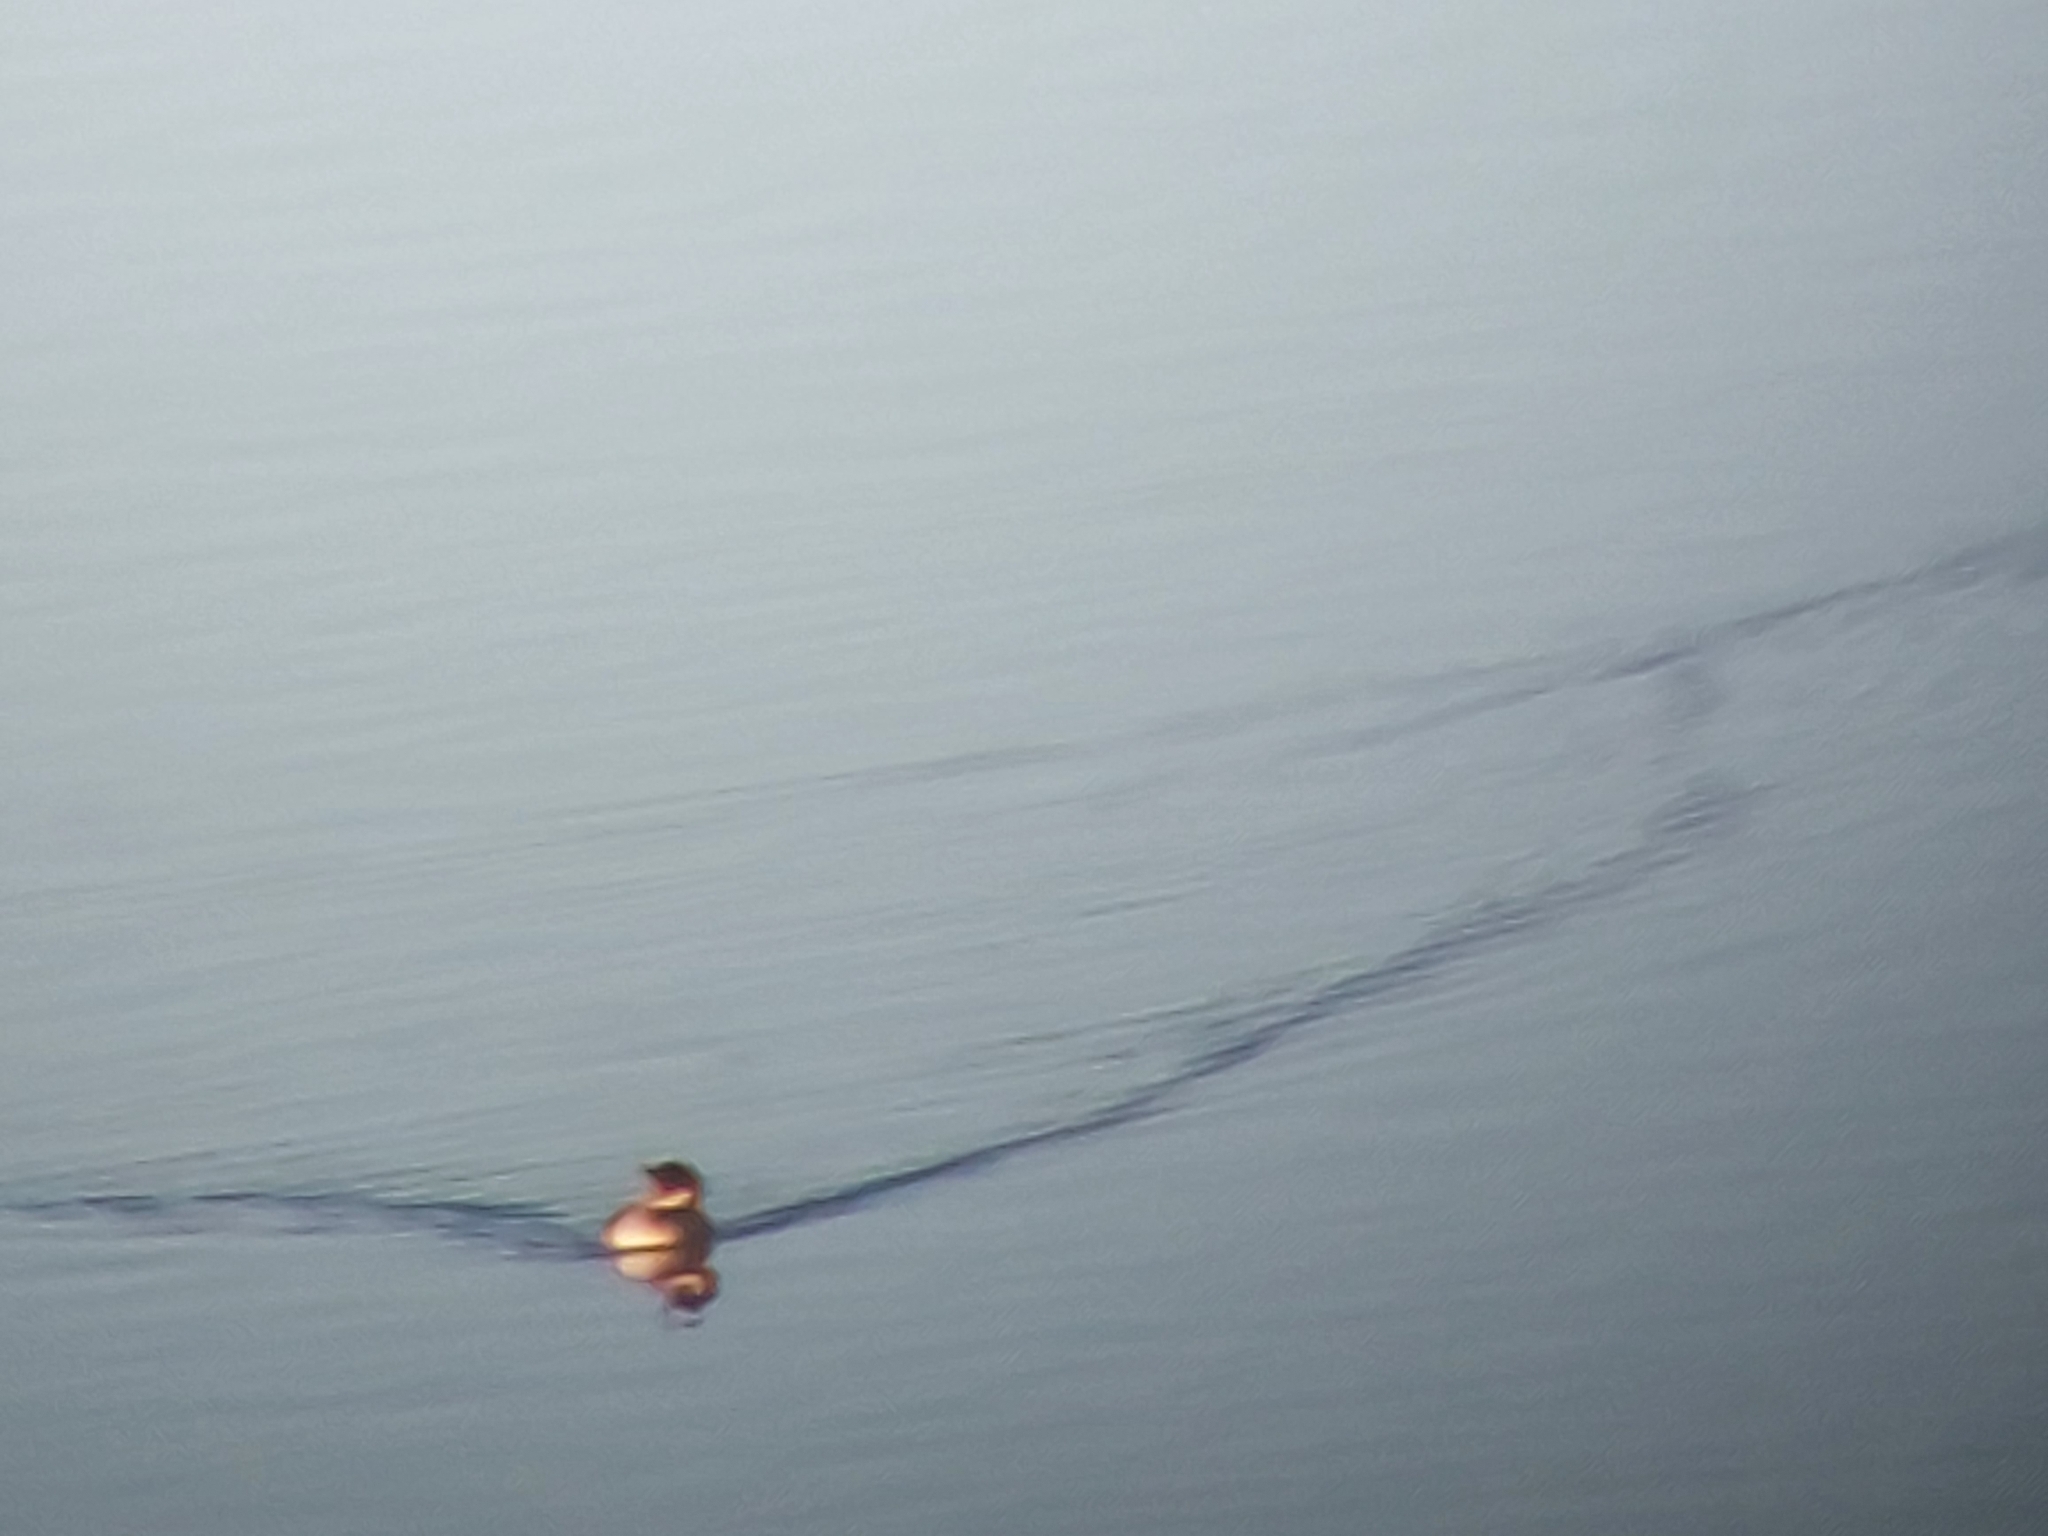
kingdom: Animalia
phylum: Chordata
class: Aves
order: Podicipediformes
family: Podicipedidae
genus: Podiceps
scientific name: Podiceps cristatus
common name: Great crested grebe
